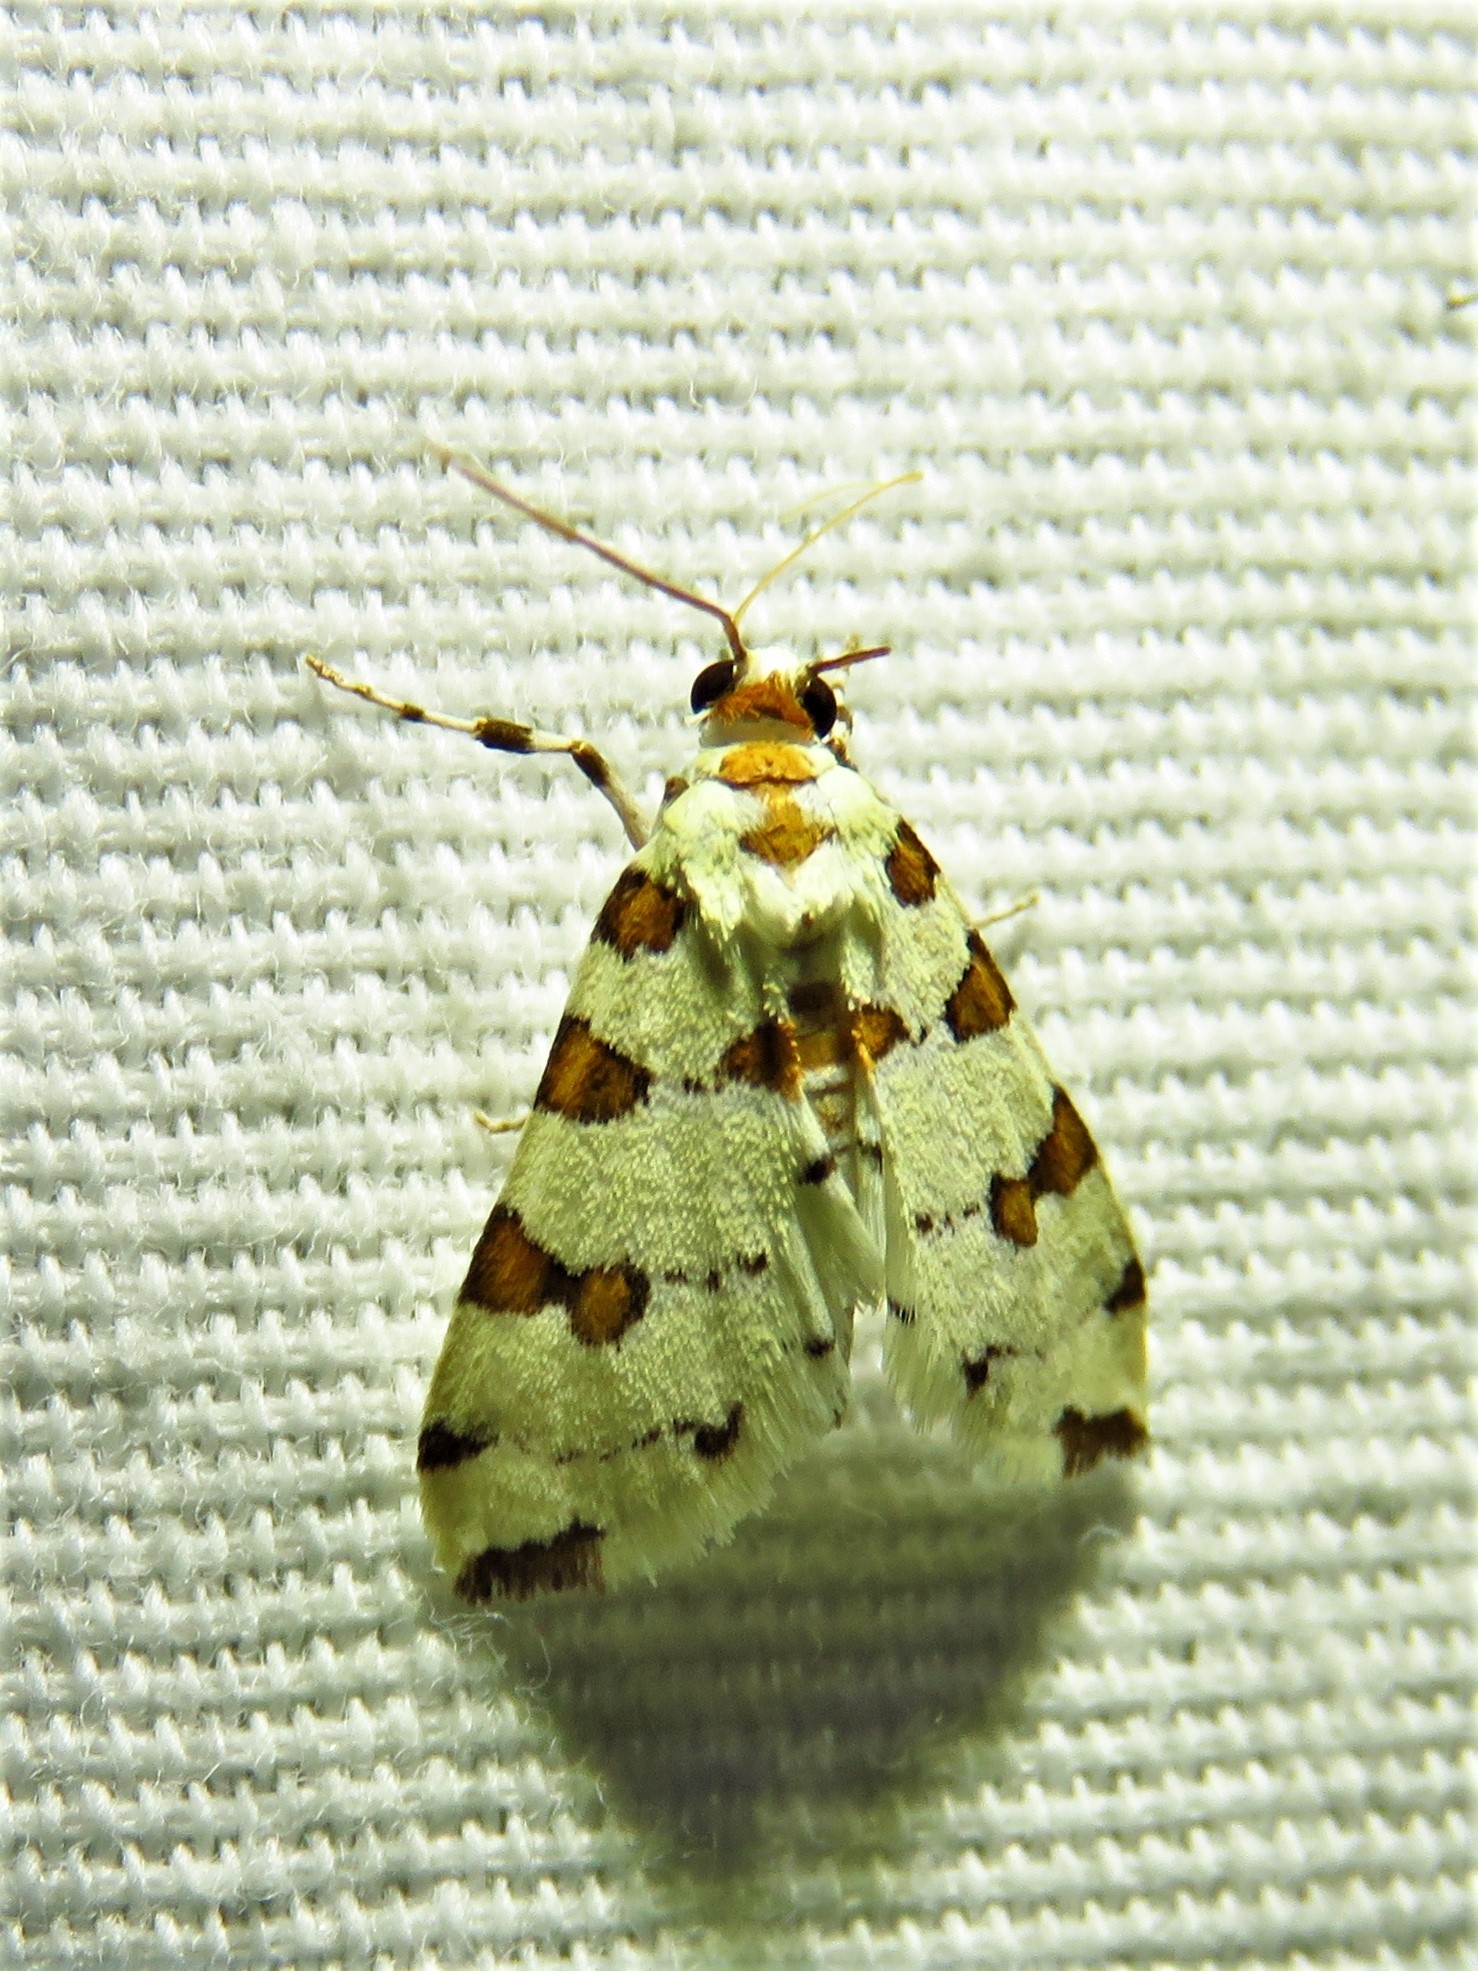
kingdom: Animalia
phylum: Arthropoda
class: Insecta
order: Lepidoptera
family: Crambidae
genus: Conchylodes
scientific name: Conchylodes
